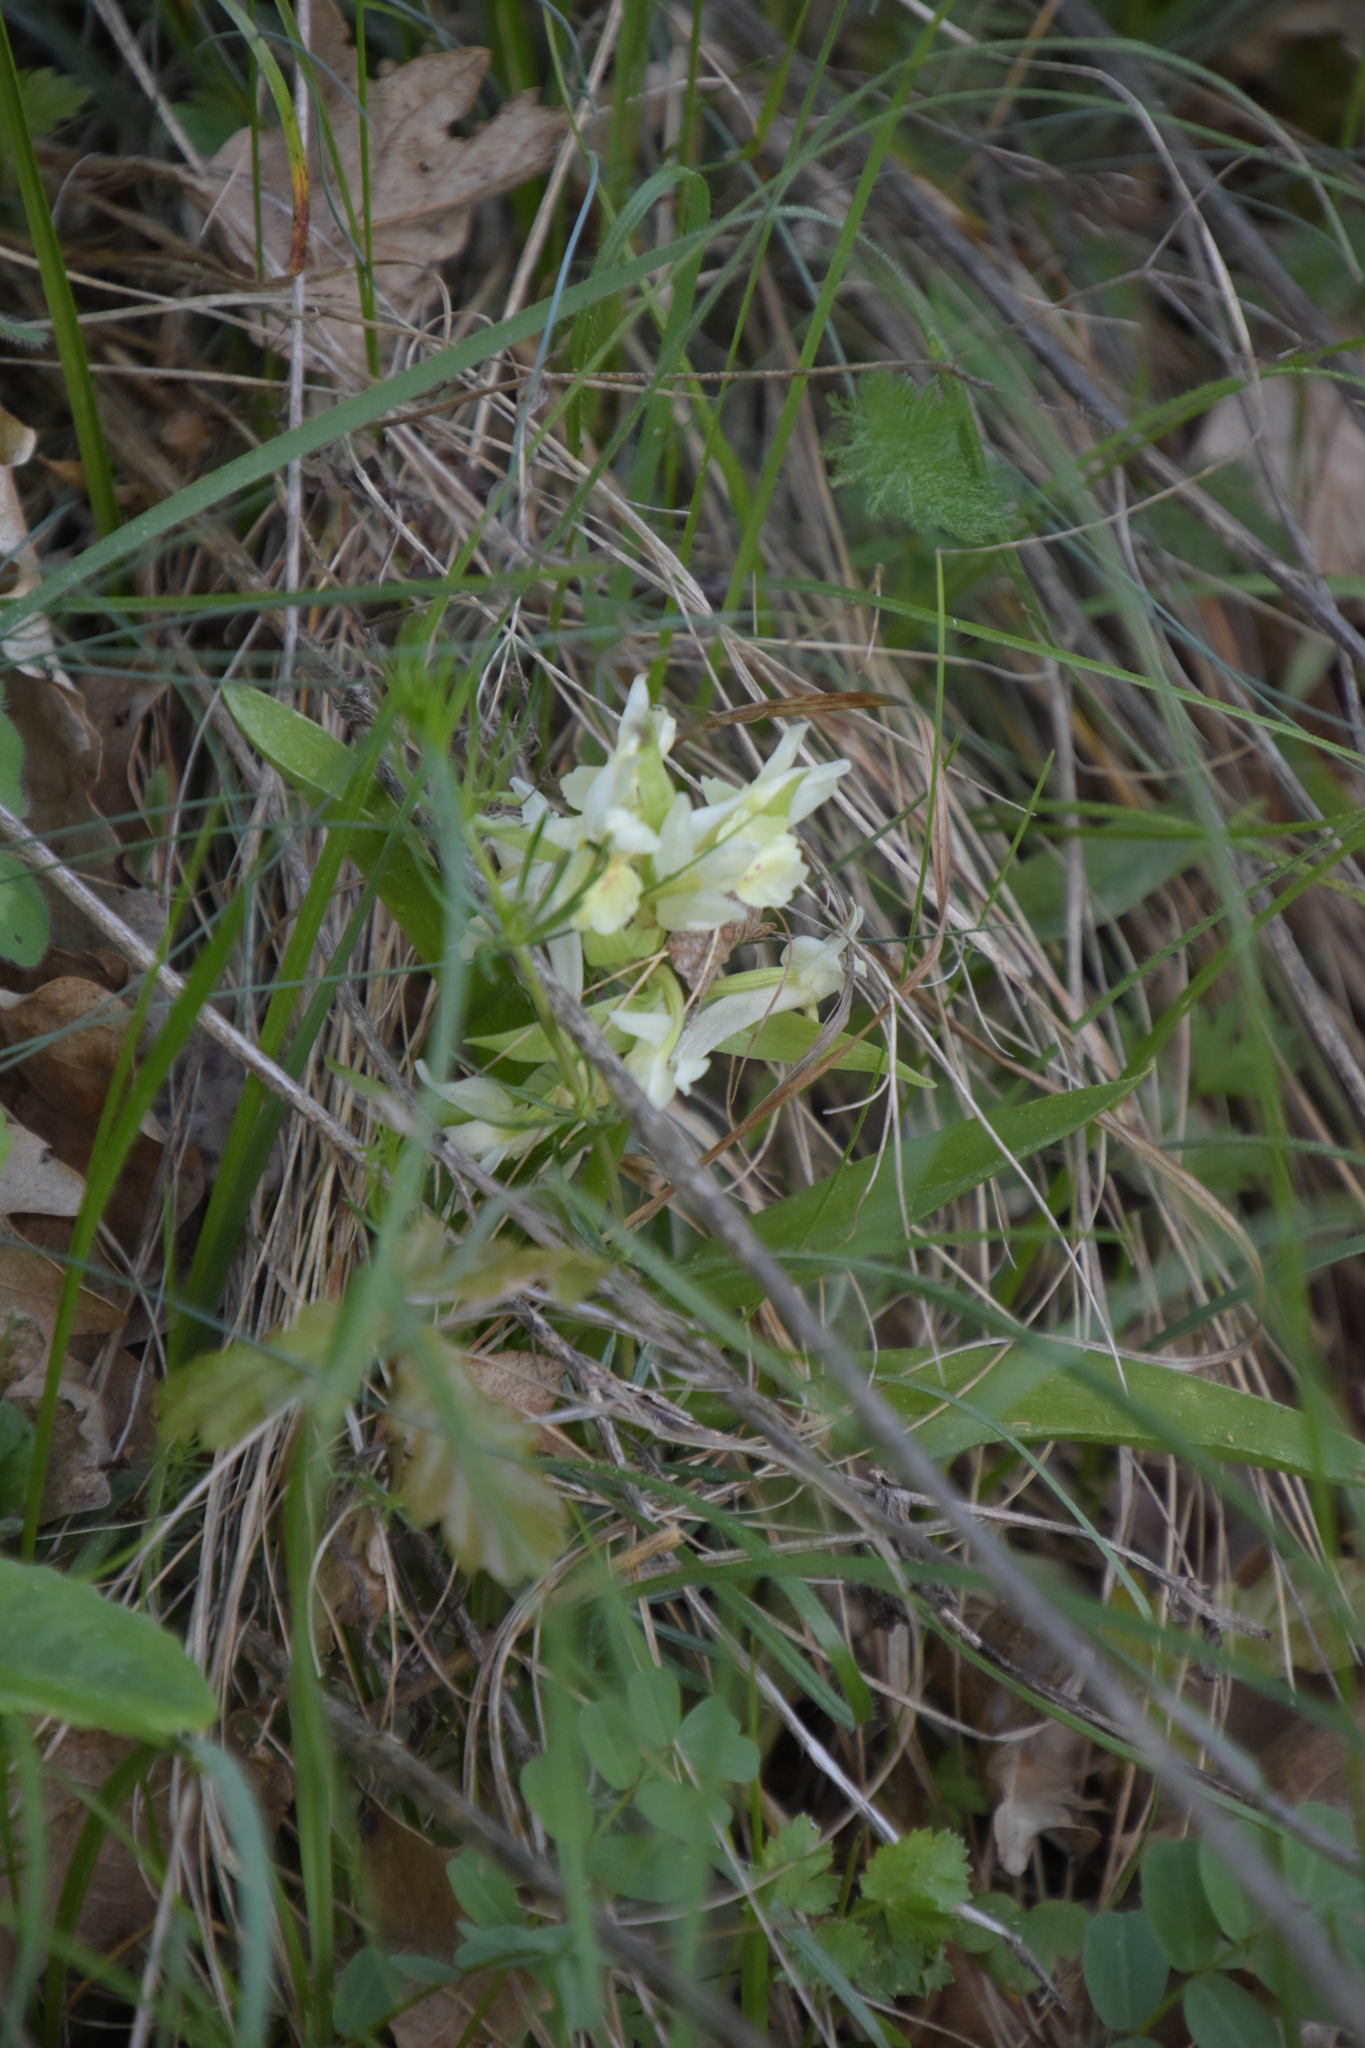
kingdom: Plantae
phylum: Tracheophyta
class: Liliopsida
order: Asparagales
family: Orchidaceae
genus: Dactylorhiza
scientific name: Dactylorhiza sambucina
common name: Elder-flowered orchid
